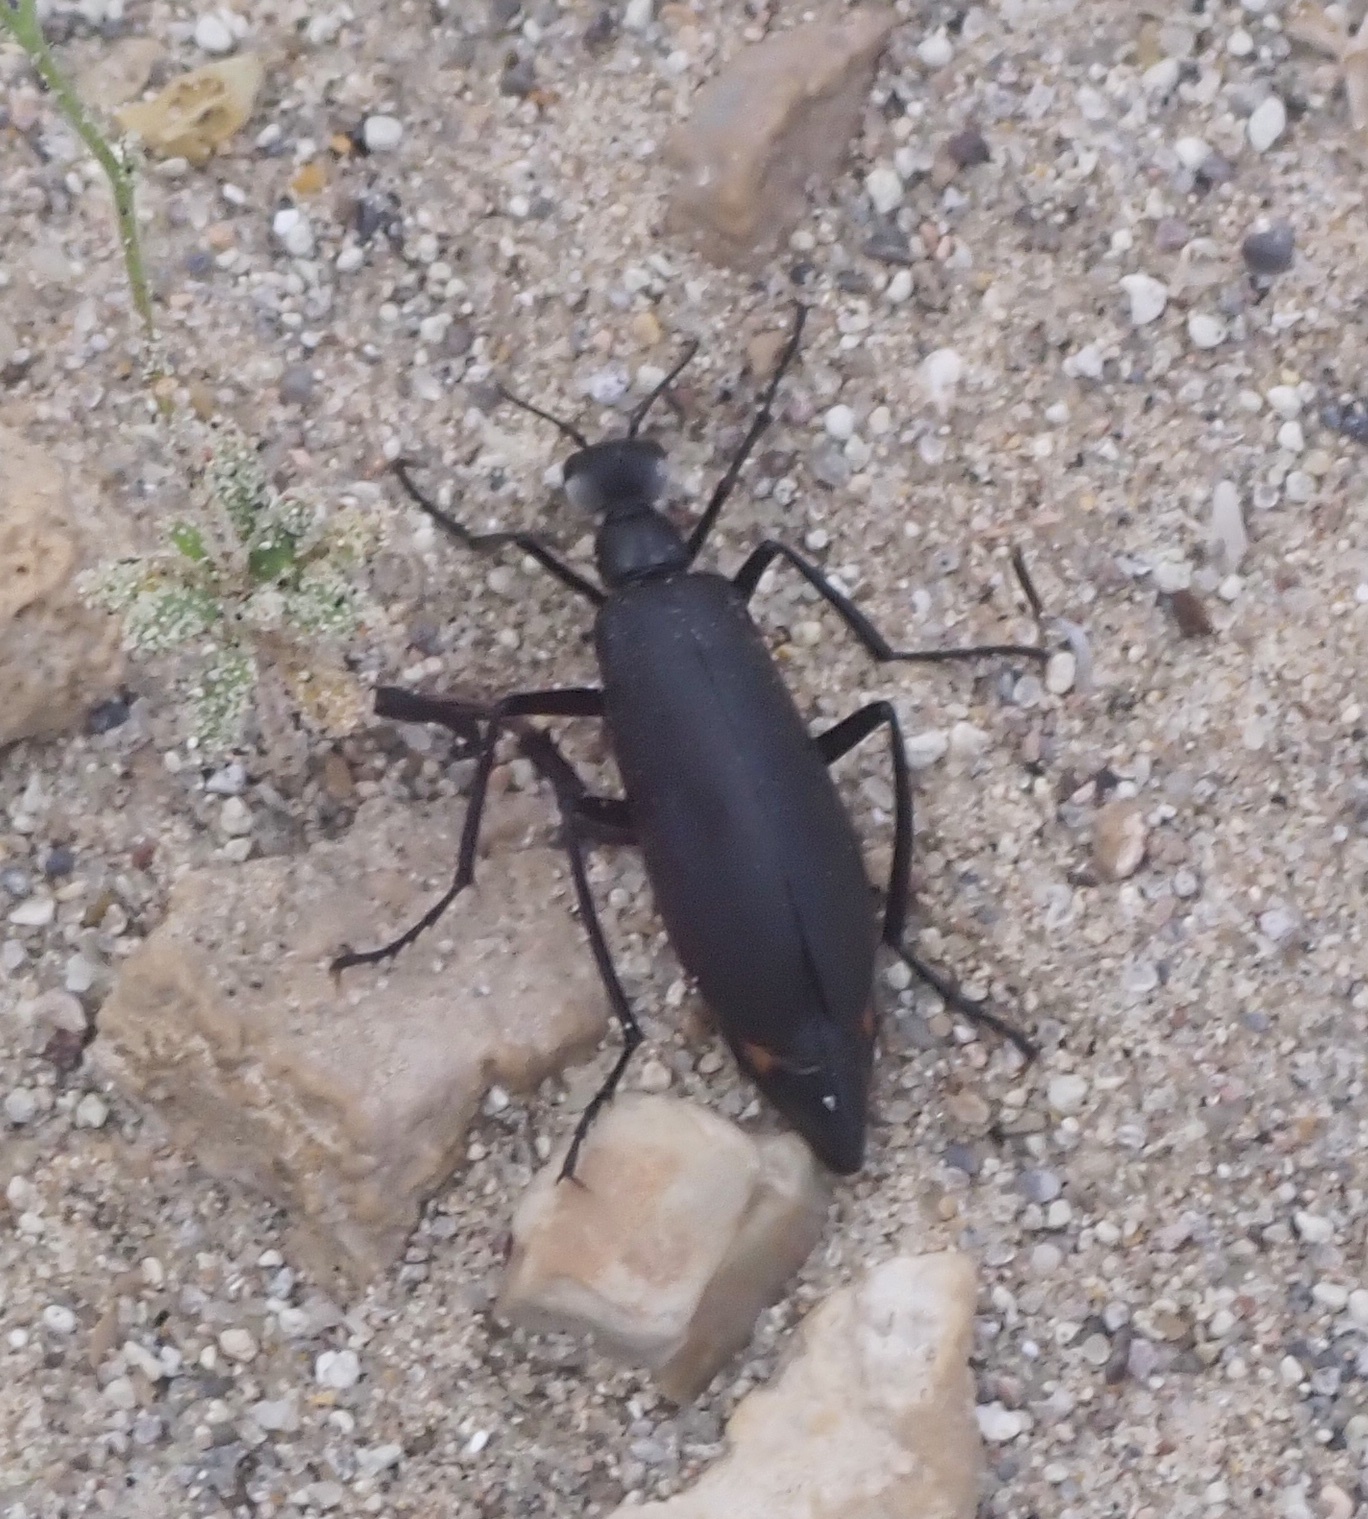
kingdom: Animalia
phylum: Arthropoda
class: Insecta
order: Coleoptera
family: Meloidae
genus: Phodaga
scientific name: Phodaga alticeps
